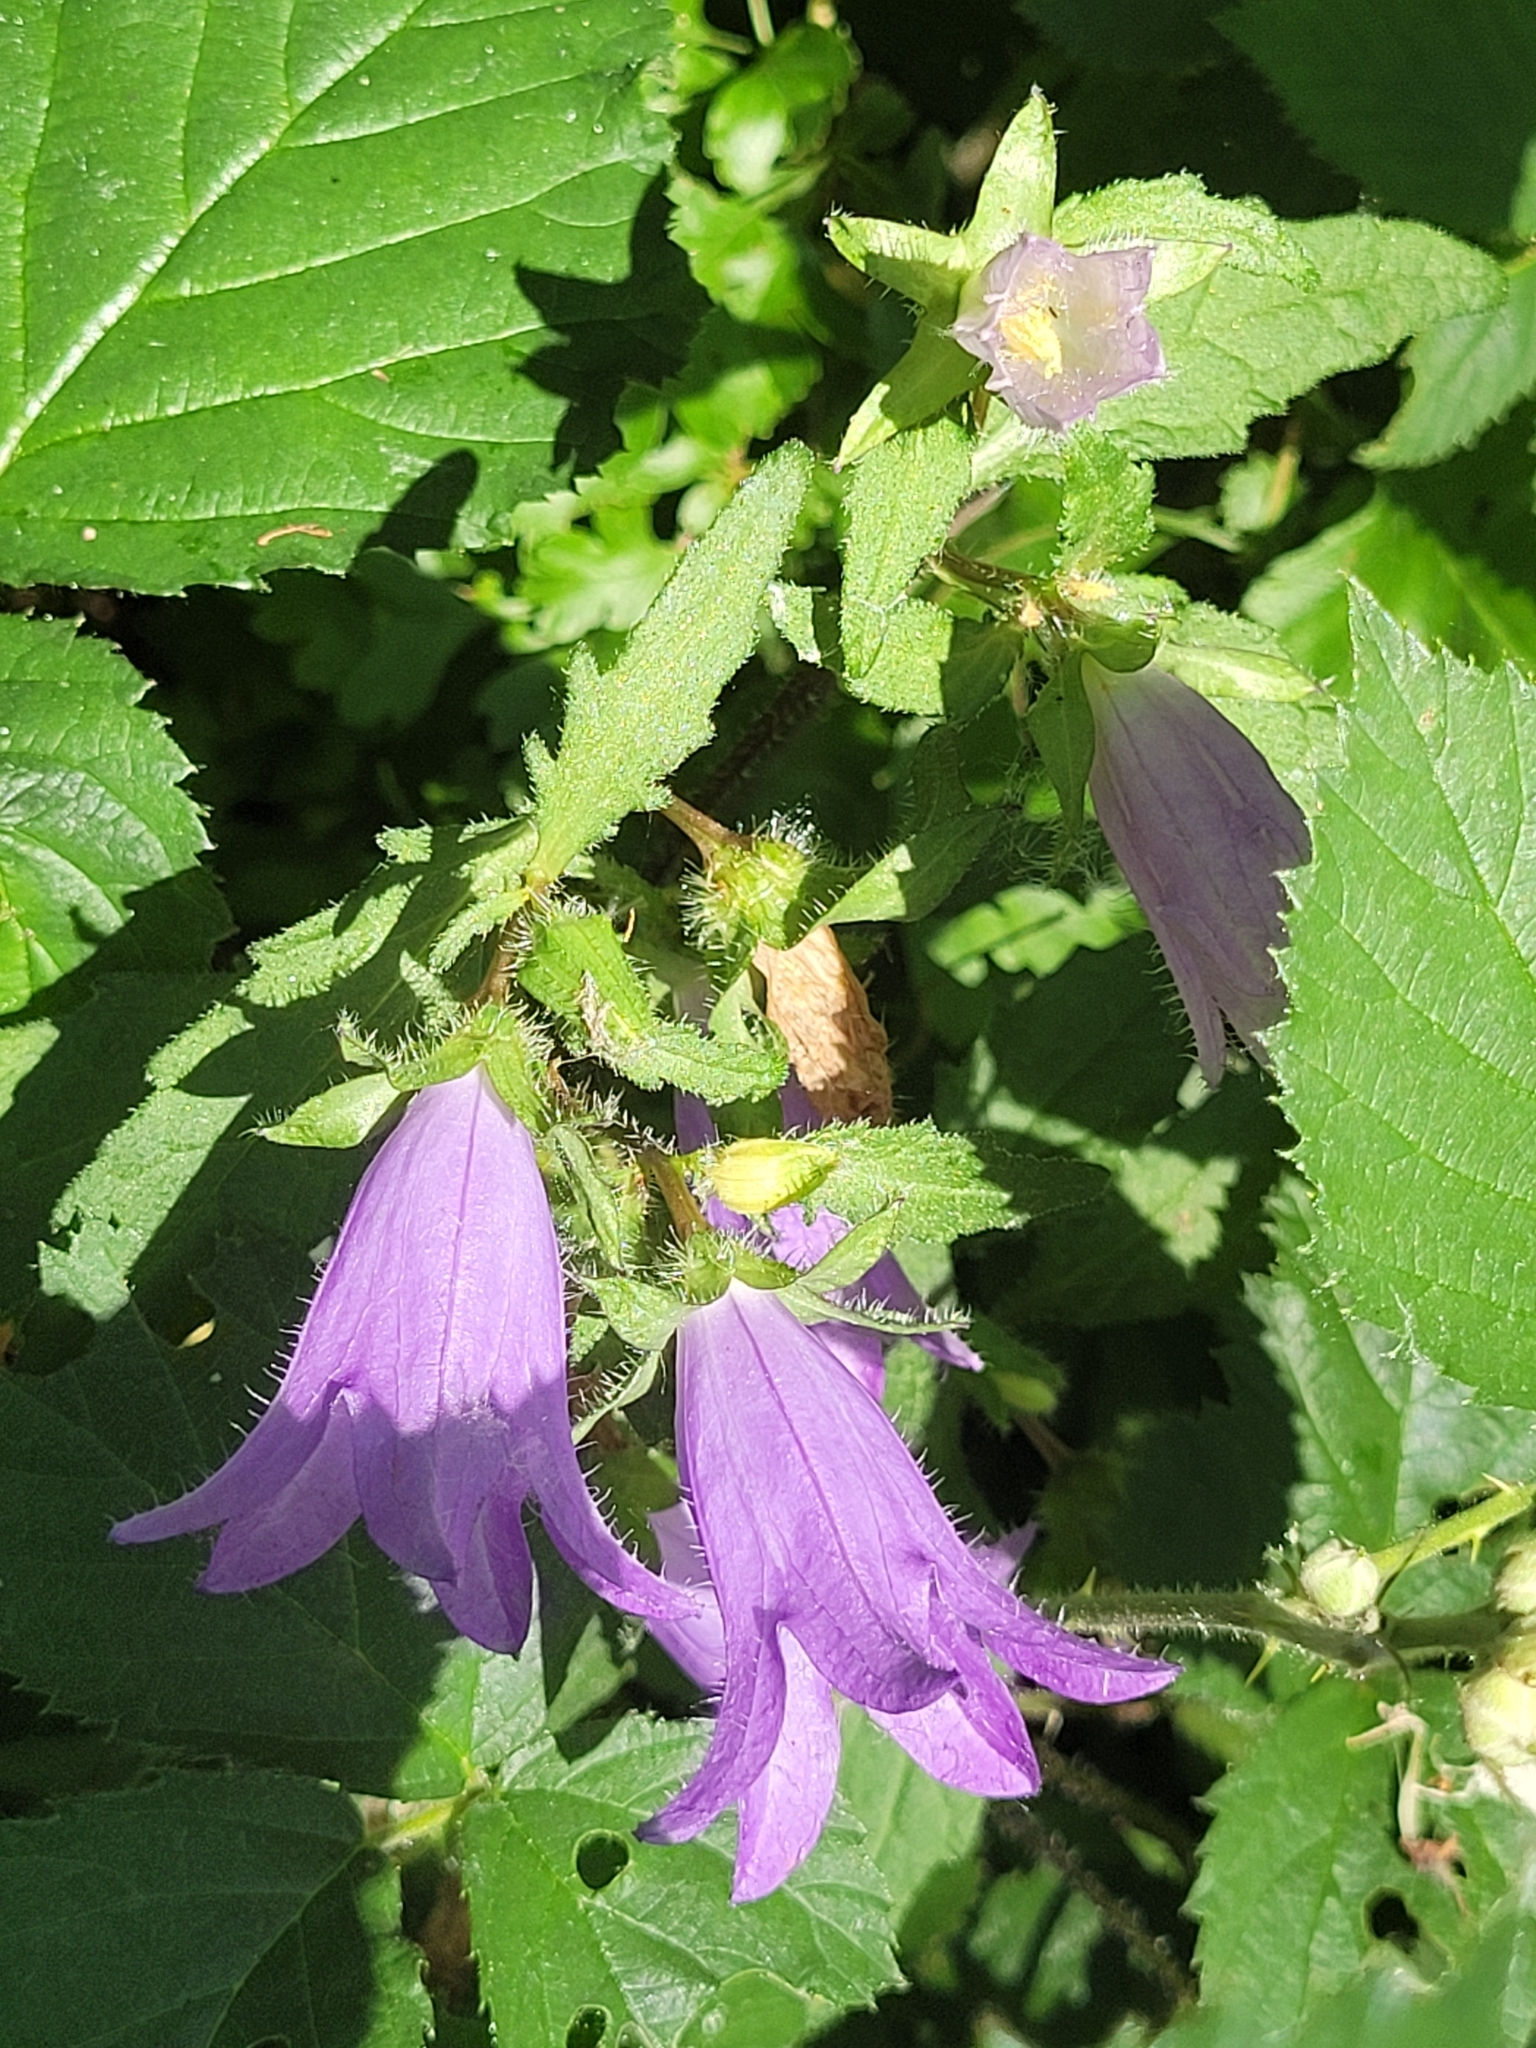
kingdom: Plantae
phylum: Tracheophyta
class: Magnoliopsida
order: Asterales
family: Campanulaceae
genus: Campanula
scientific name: Campanula trachelium
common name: Nettle-leaved bellflower
